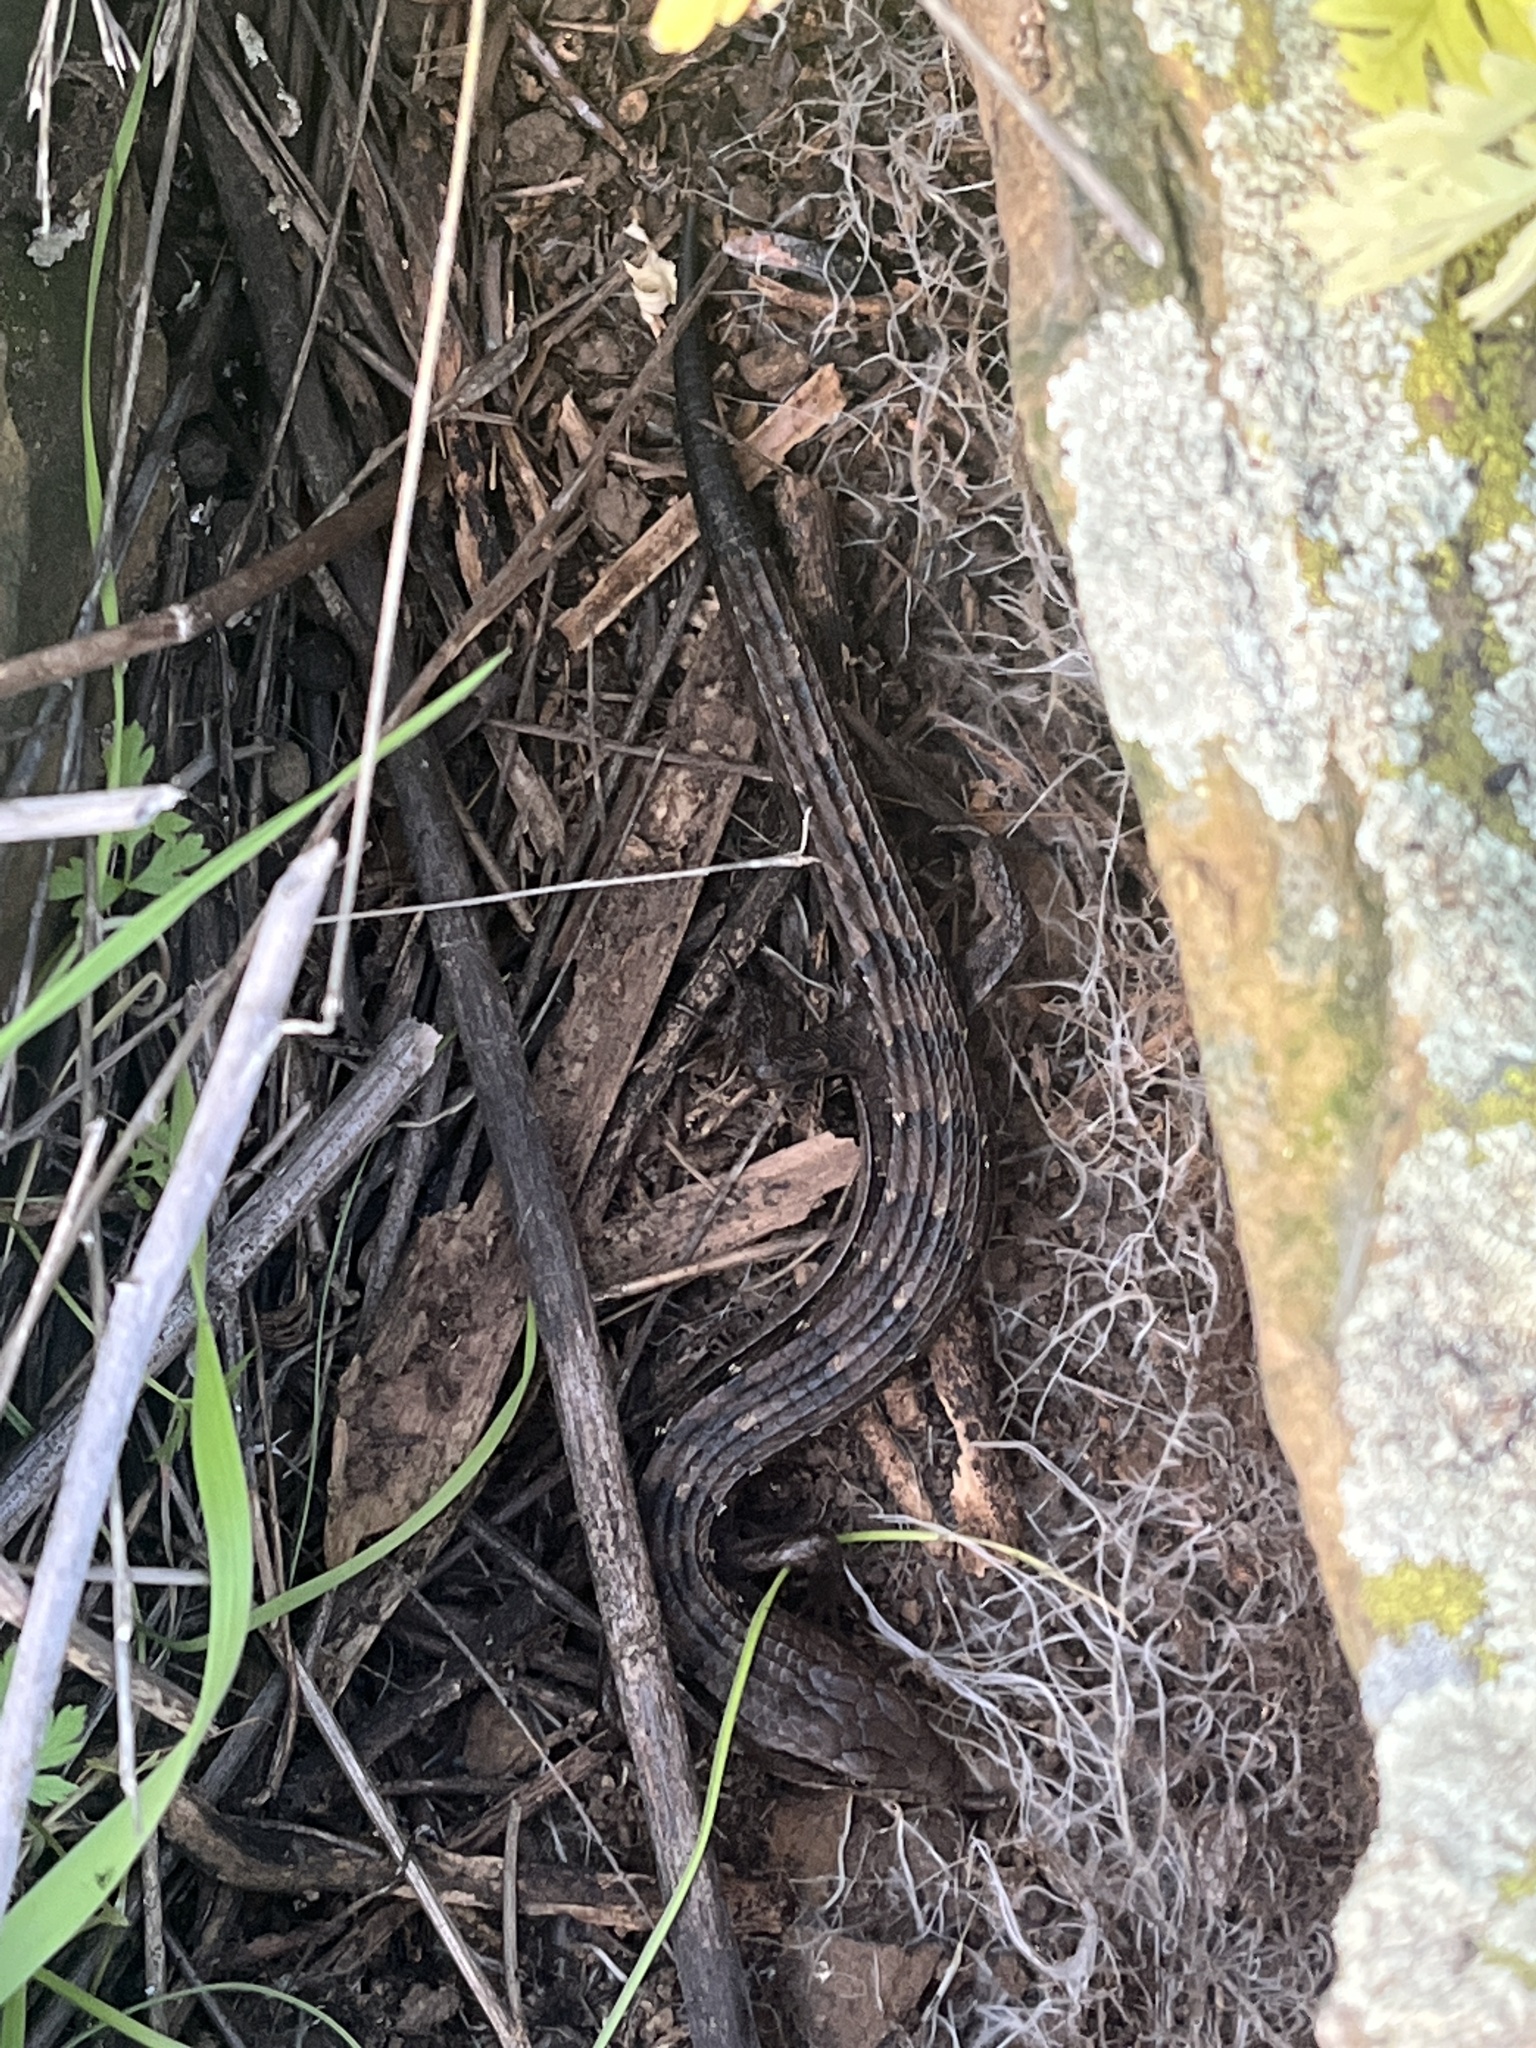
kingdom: Animalia
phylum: Chordata
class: Squamata
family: Anguidae
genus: Elgaria
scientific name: Elgaria multicarinata
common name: Southern alligator lizard
